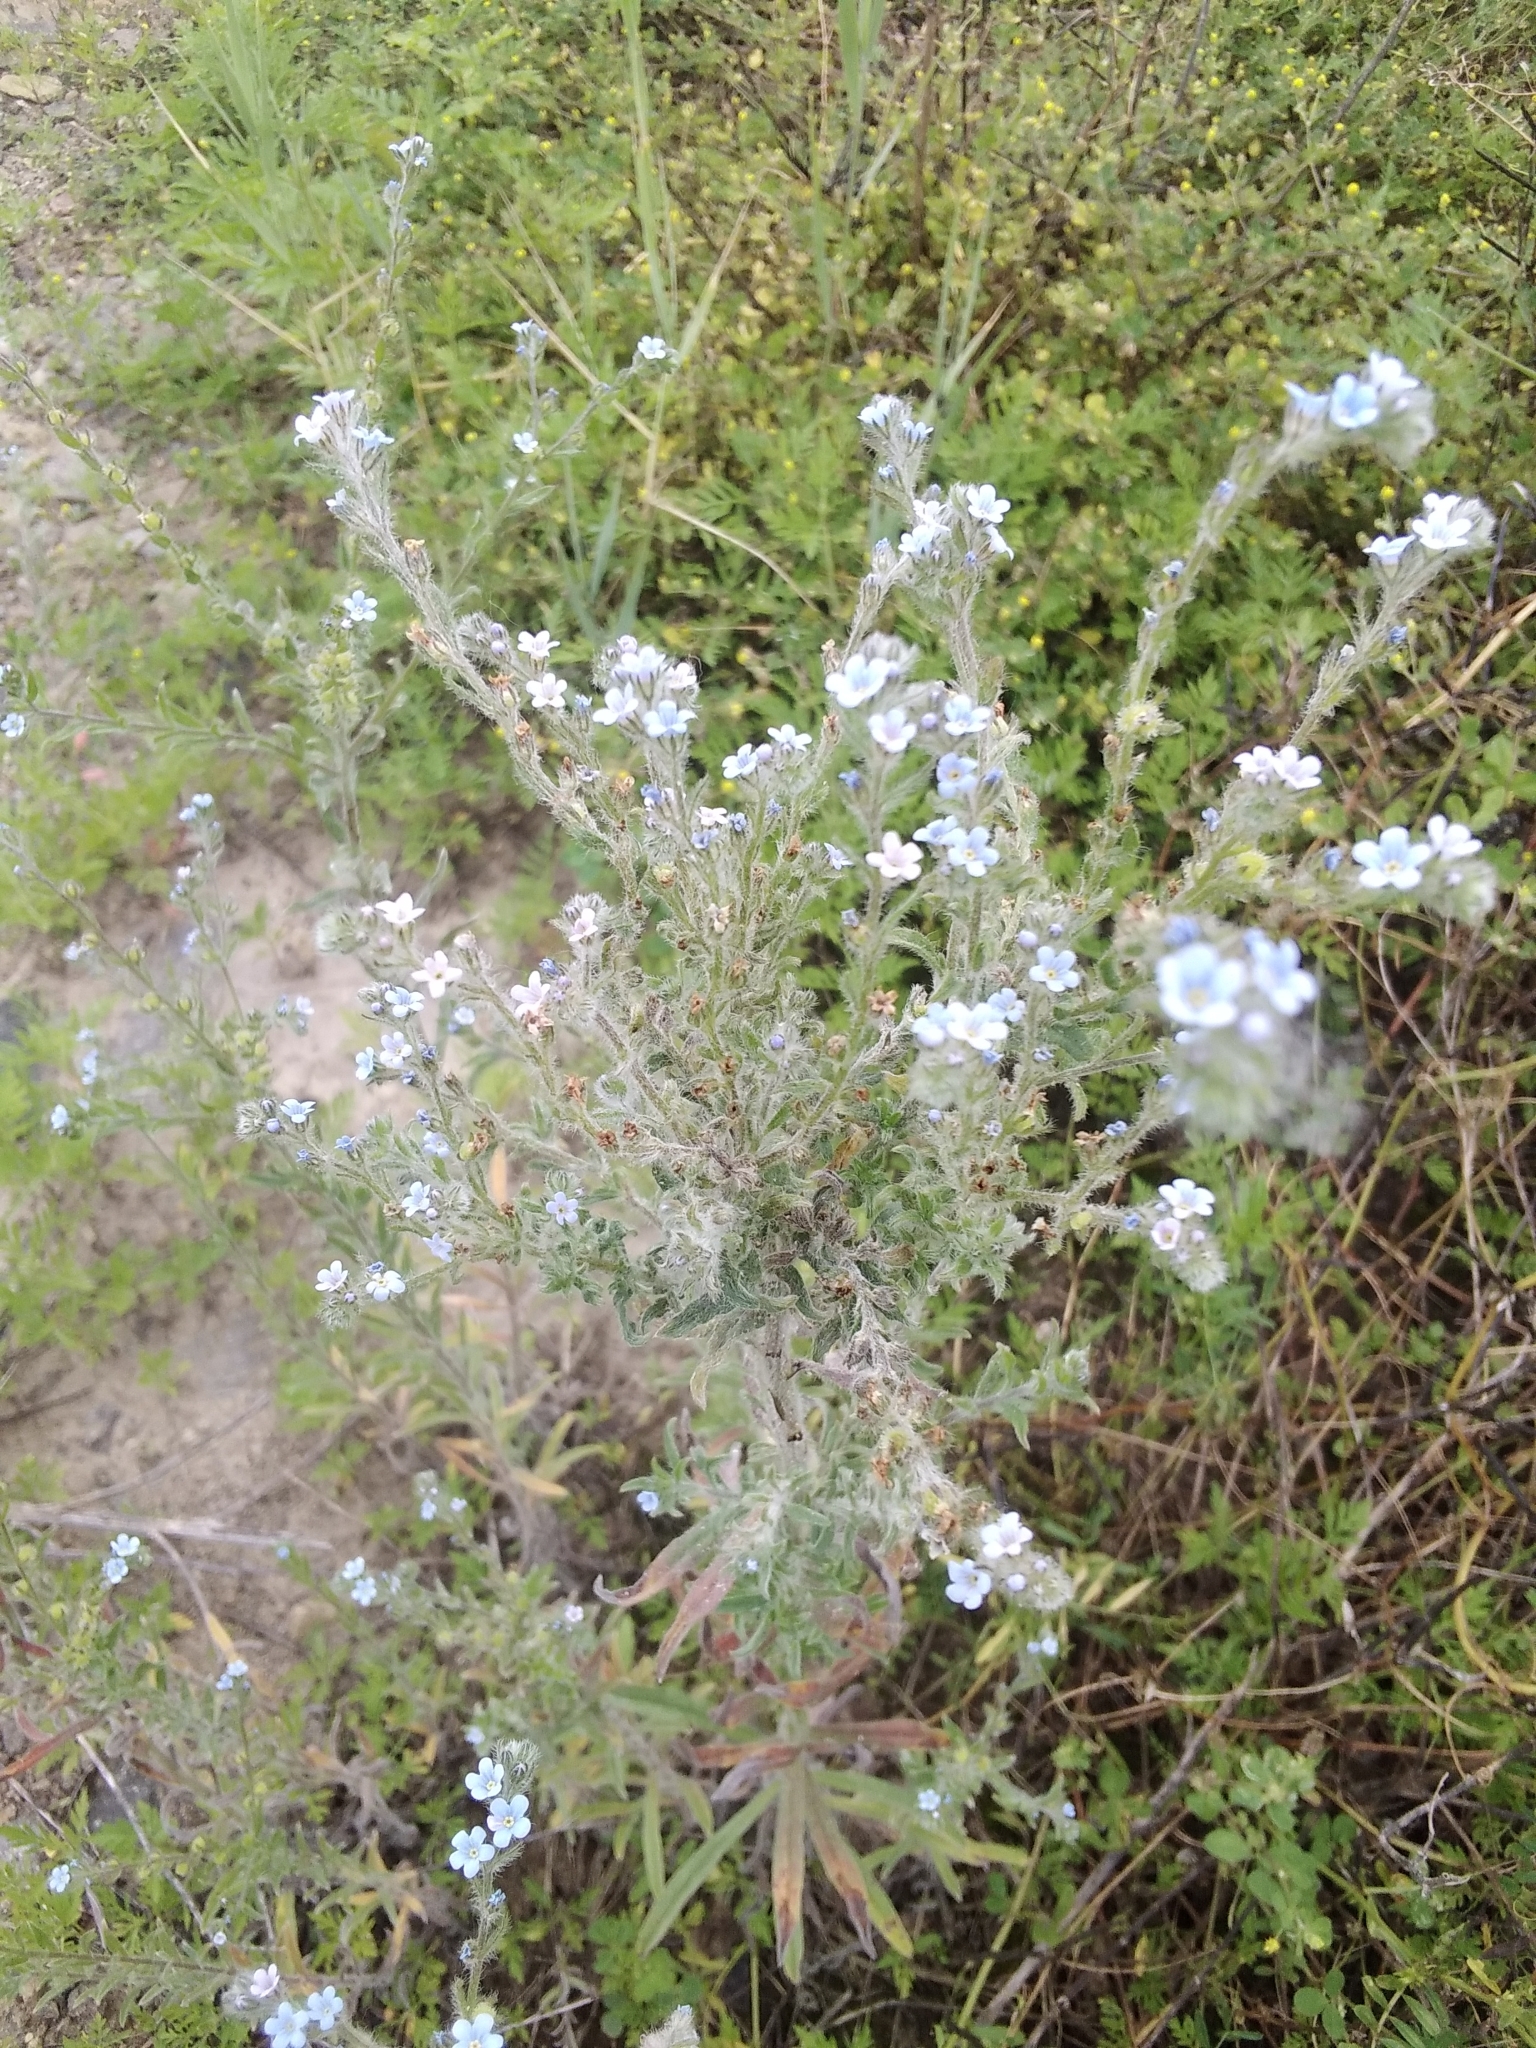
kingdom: Plantae
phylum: Tracheophyta
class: Magnoliopsida
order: Boraginales
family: Boraginaceae
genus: Lappula
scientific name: Lappula squarrosa
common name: European stickseed
